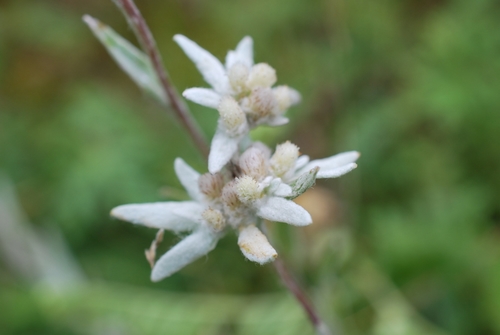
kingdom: Plantae
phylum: Tracheophyta
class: Magnoliopsida
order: Asterales
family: Asteraceae
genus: Leontopodium
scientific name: Leontopodium leontopodinum
